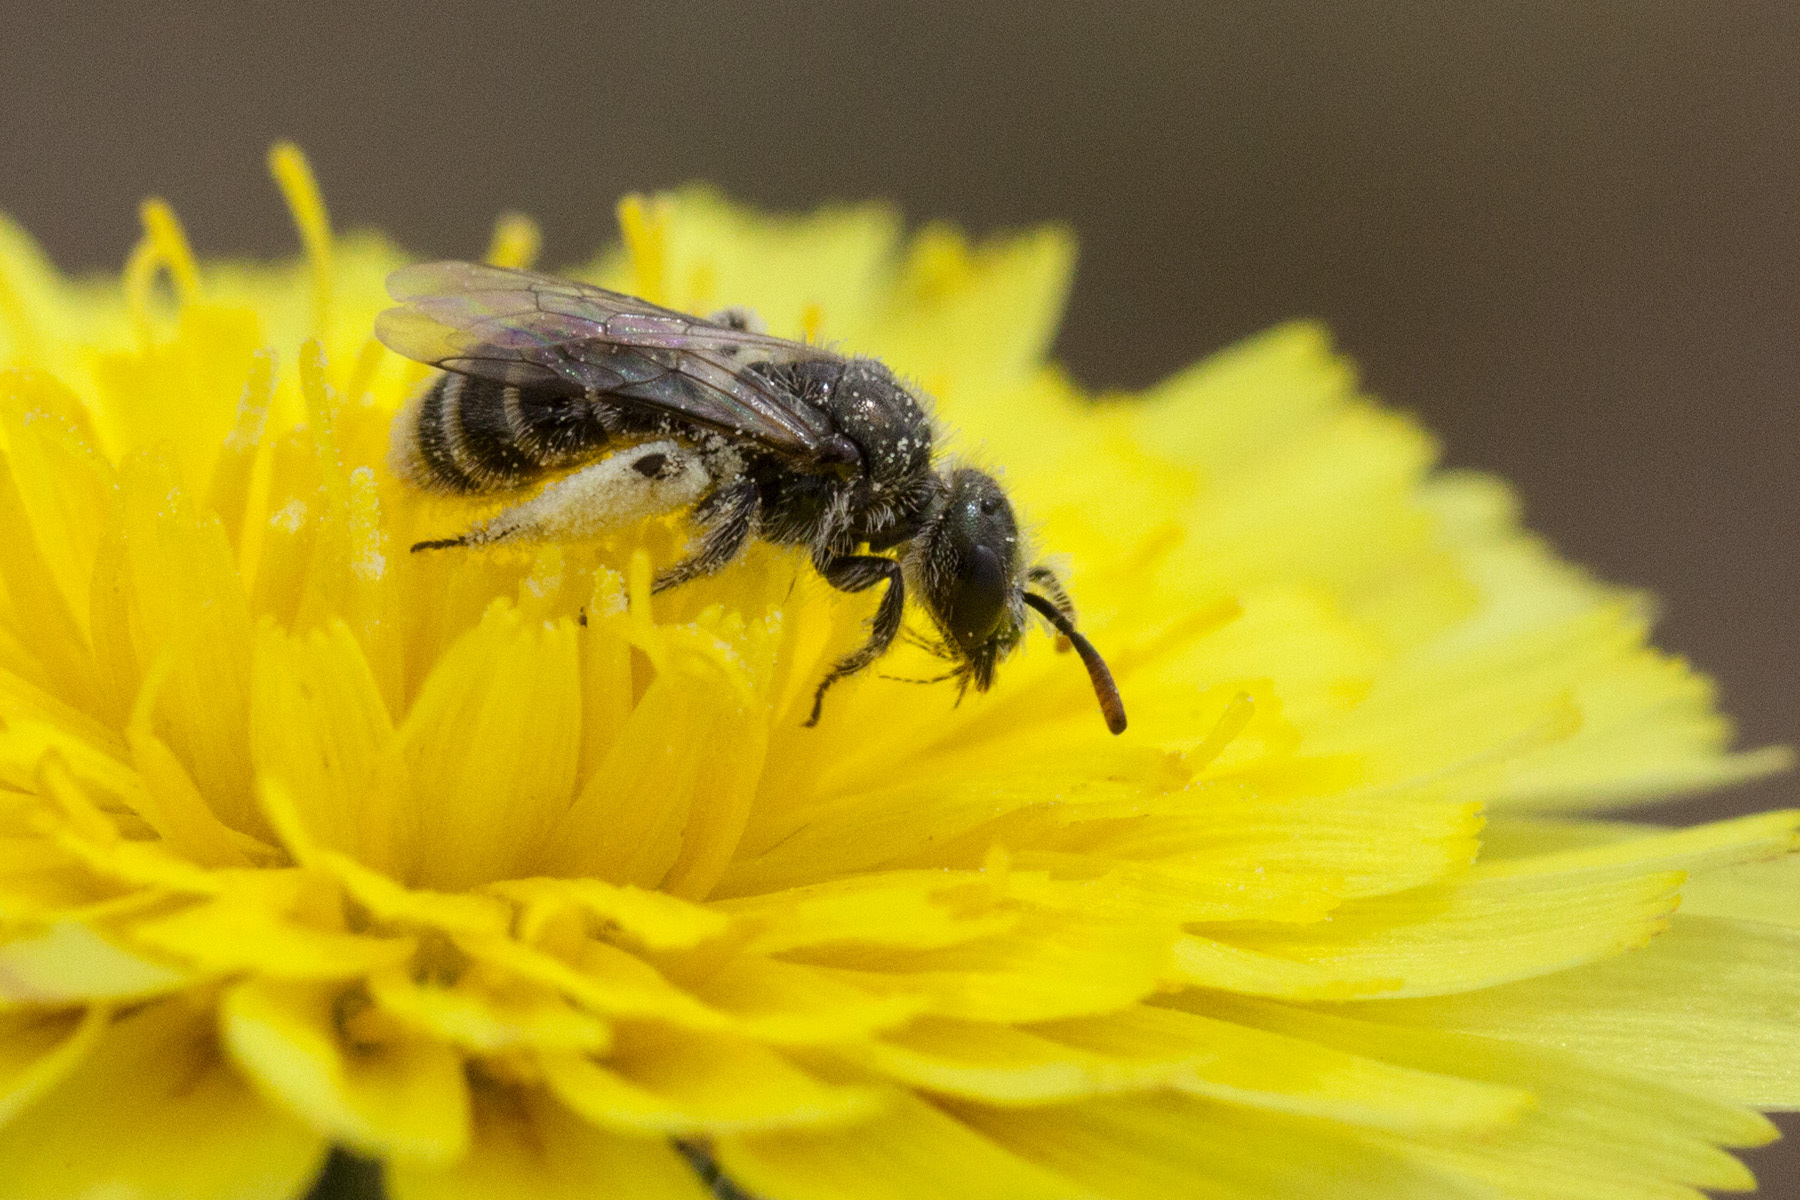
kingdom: Animalia
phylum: Arthropoda
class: Insecta
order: Hymenoptera
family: Halictidae
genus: Dufourea
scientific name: Dufourea
